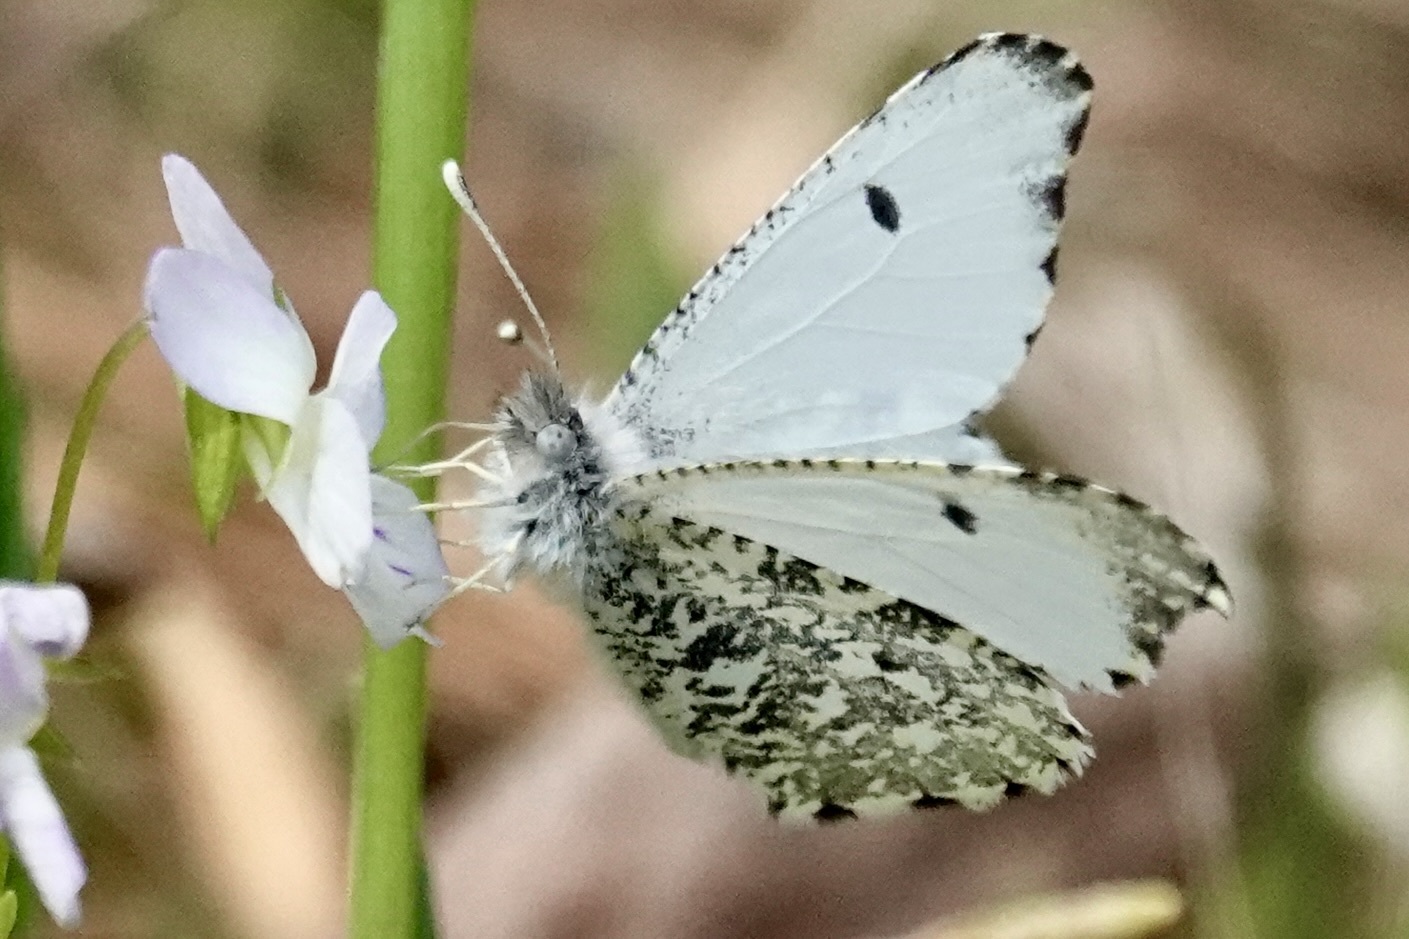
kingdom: Animalia
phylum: Arthropoda
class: Insecta
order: Lepidoptera
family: Pieridae
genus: Anthocharis
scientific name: Anthocharis midea
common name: Falcate orangetip
